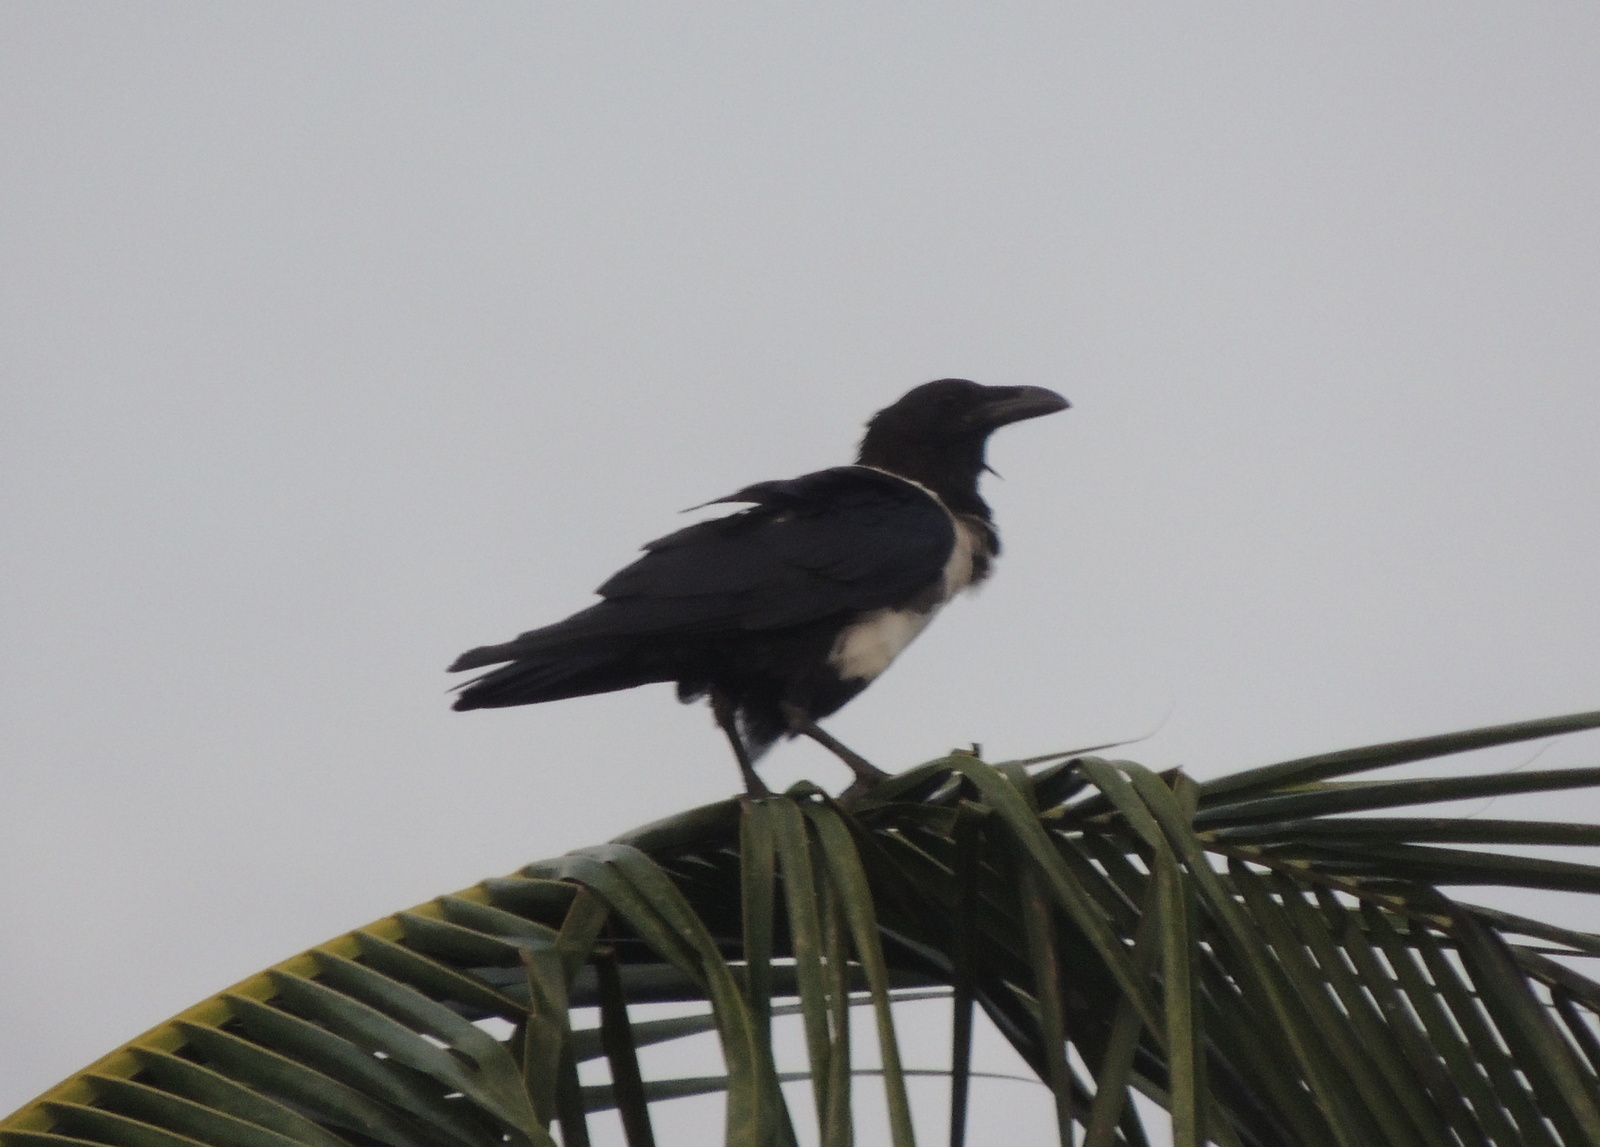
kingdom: Animalia
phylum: Chordata
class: Aves
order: Passeriformes
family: Corvidae
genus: Corvus
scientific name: Corvus albus
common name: Pied crow
